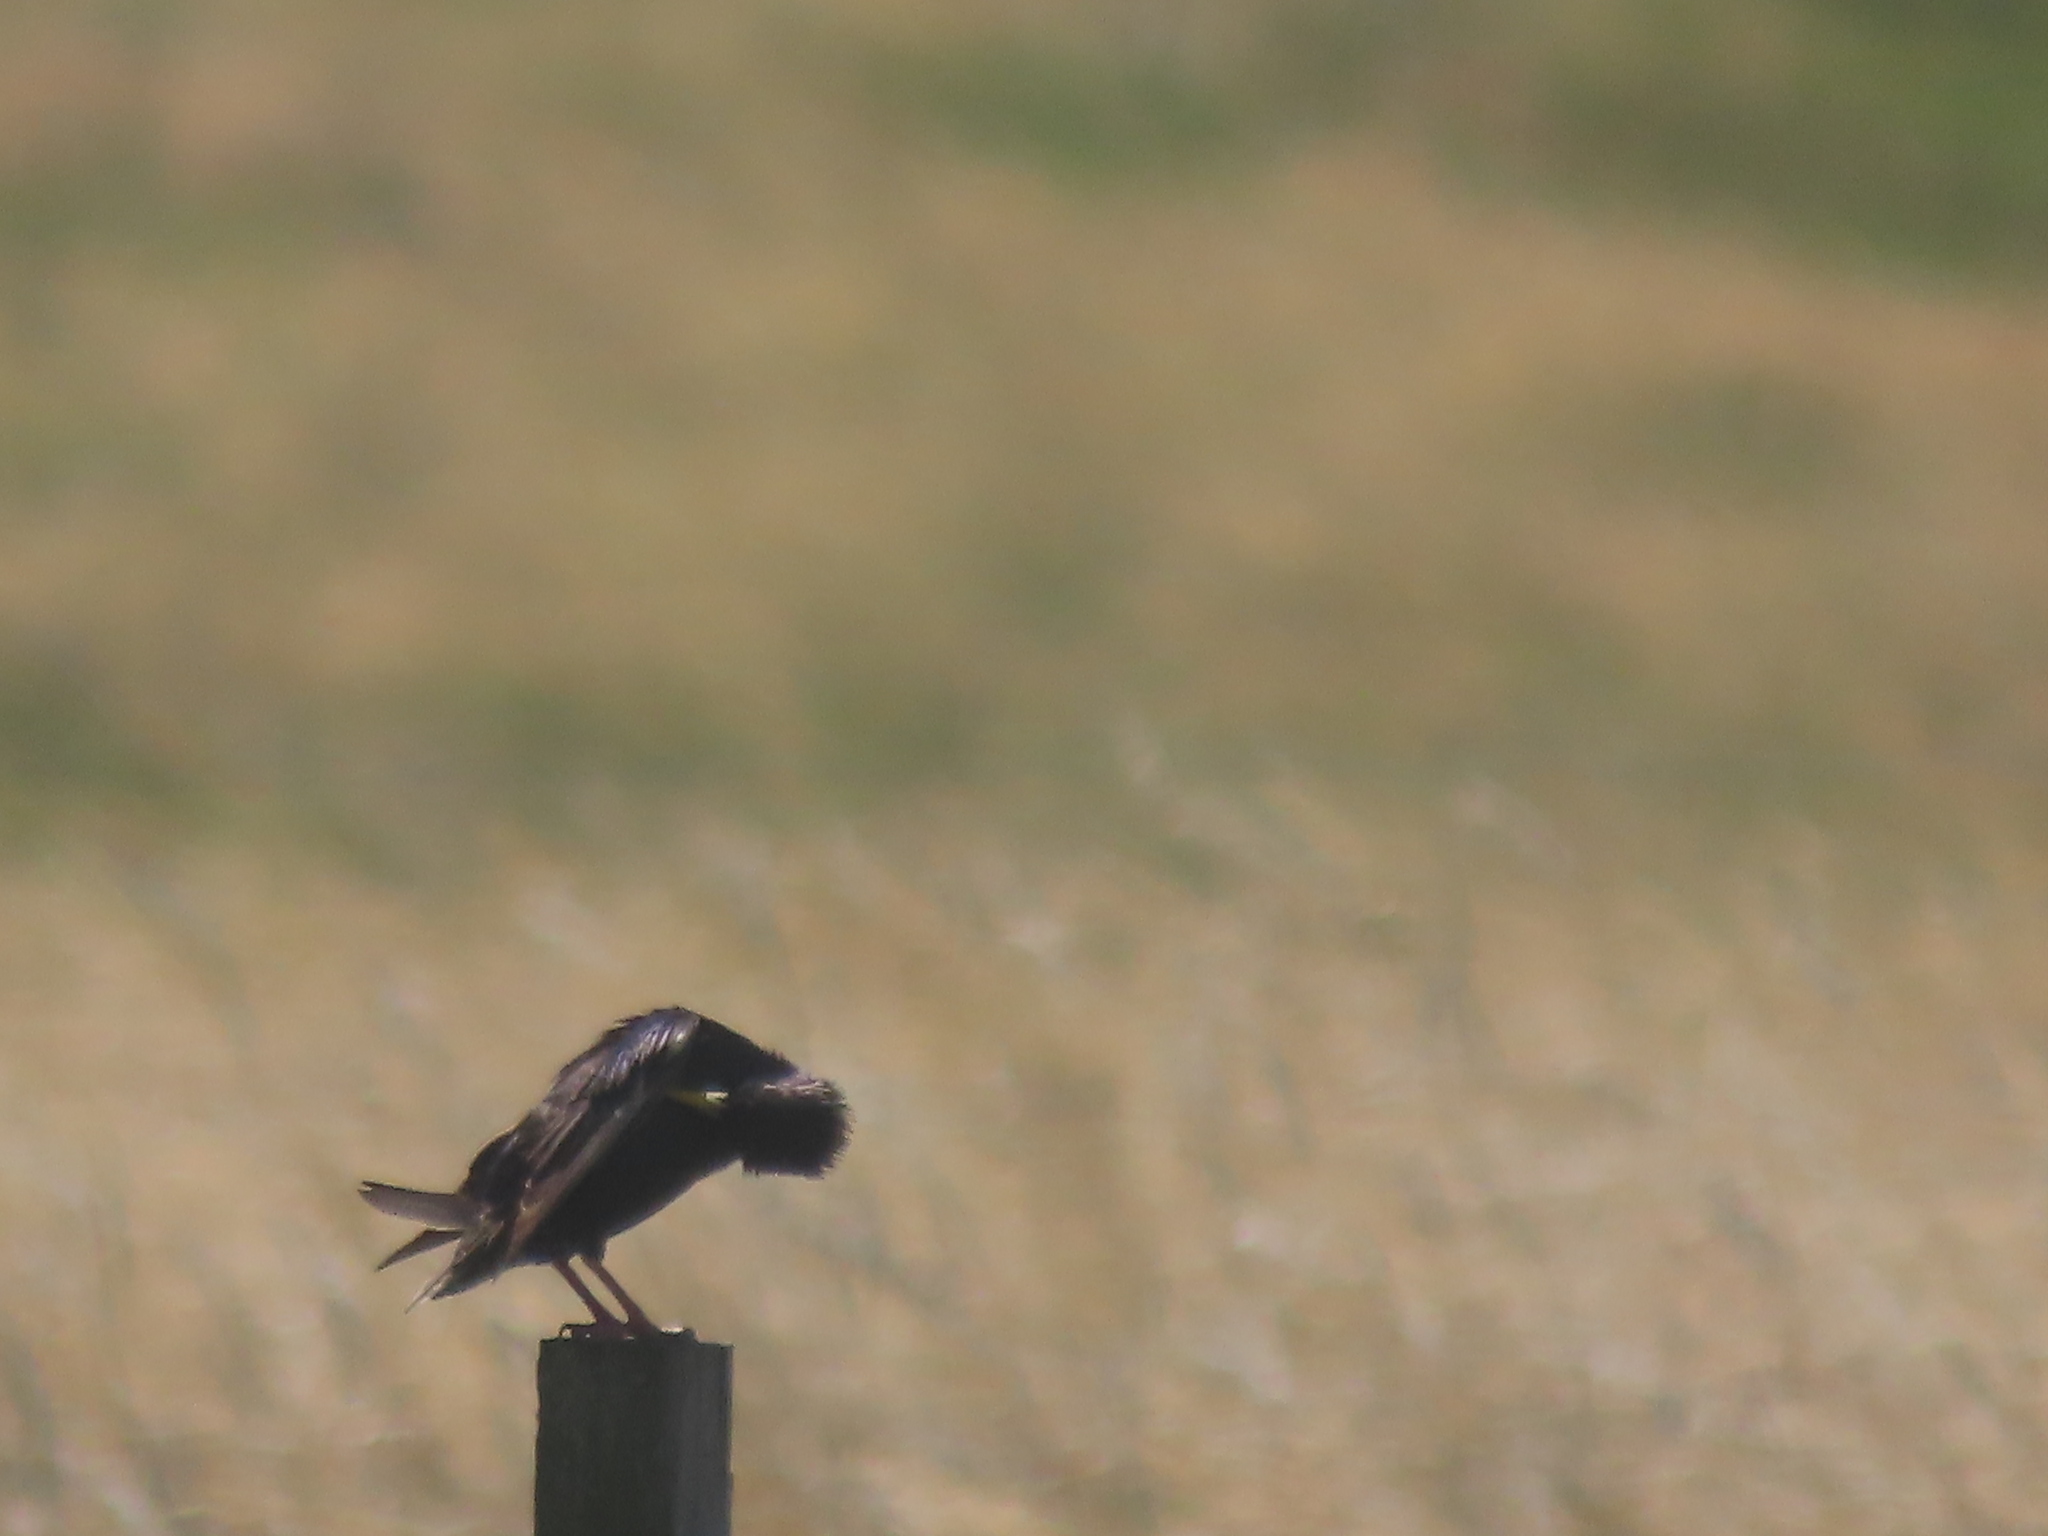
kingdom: Animalia
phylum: Chordata
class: Aves
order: Passeriformes
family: Sturnidae
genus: Sturnus
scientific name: Sturnus vulgaris
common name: Common starling
